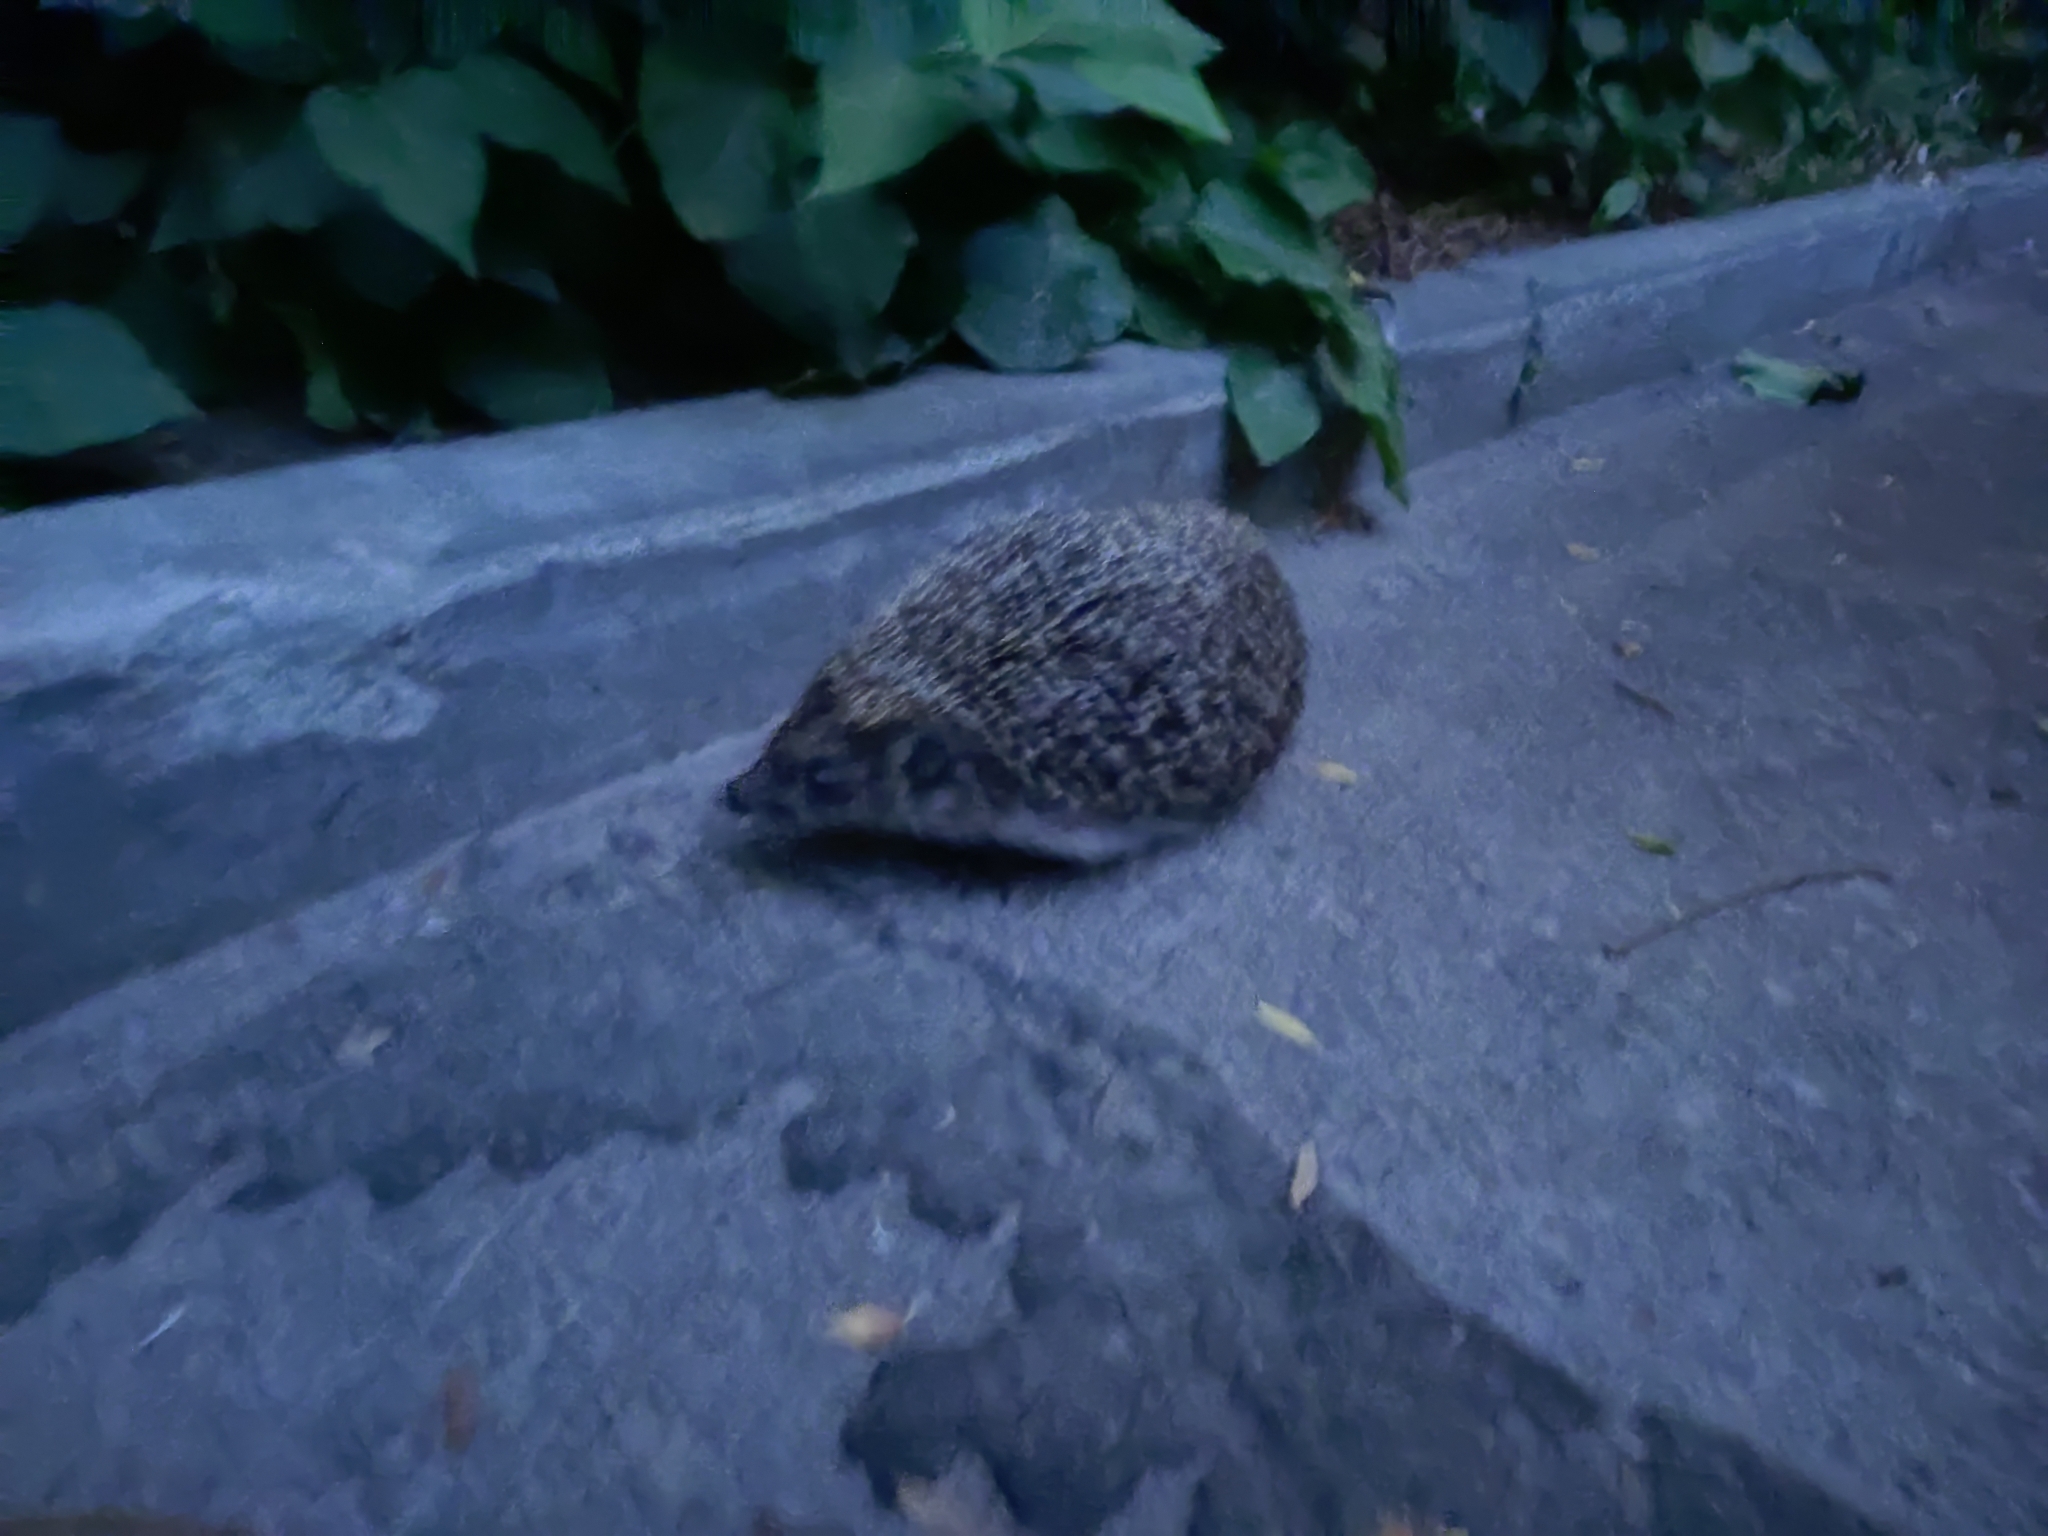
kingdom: Animalia
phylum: Chordata
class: Mammalia
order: Erinaceomorpha
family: Erinaceidae
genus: Erinaceus
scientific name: Erinaceus roumanicus
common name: Northern white-breasted hedgehog
